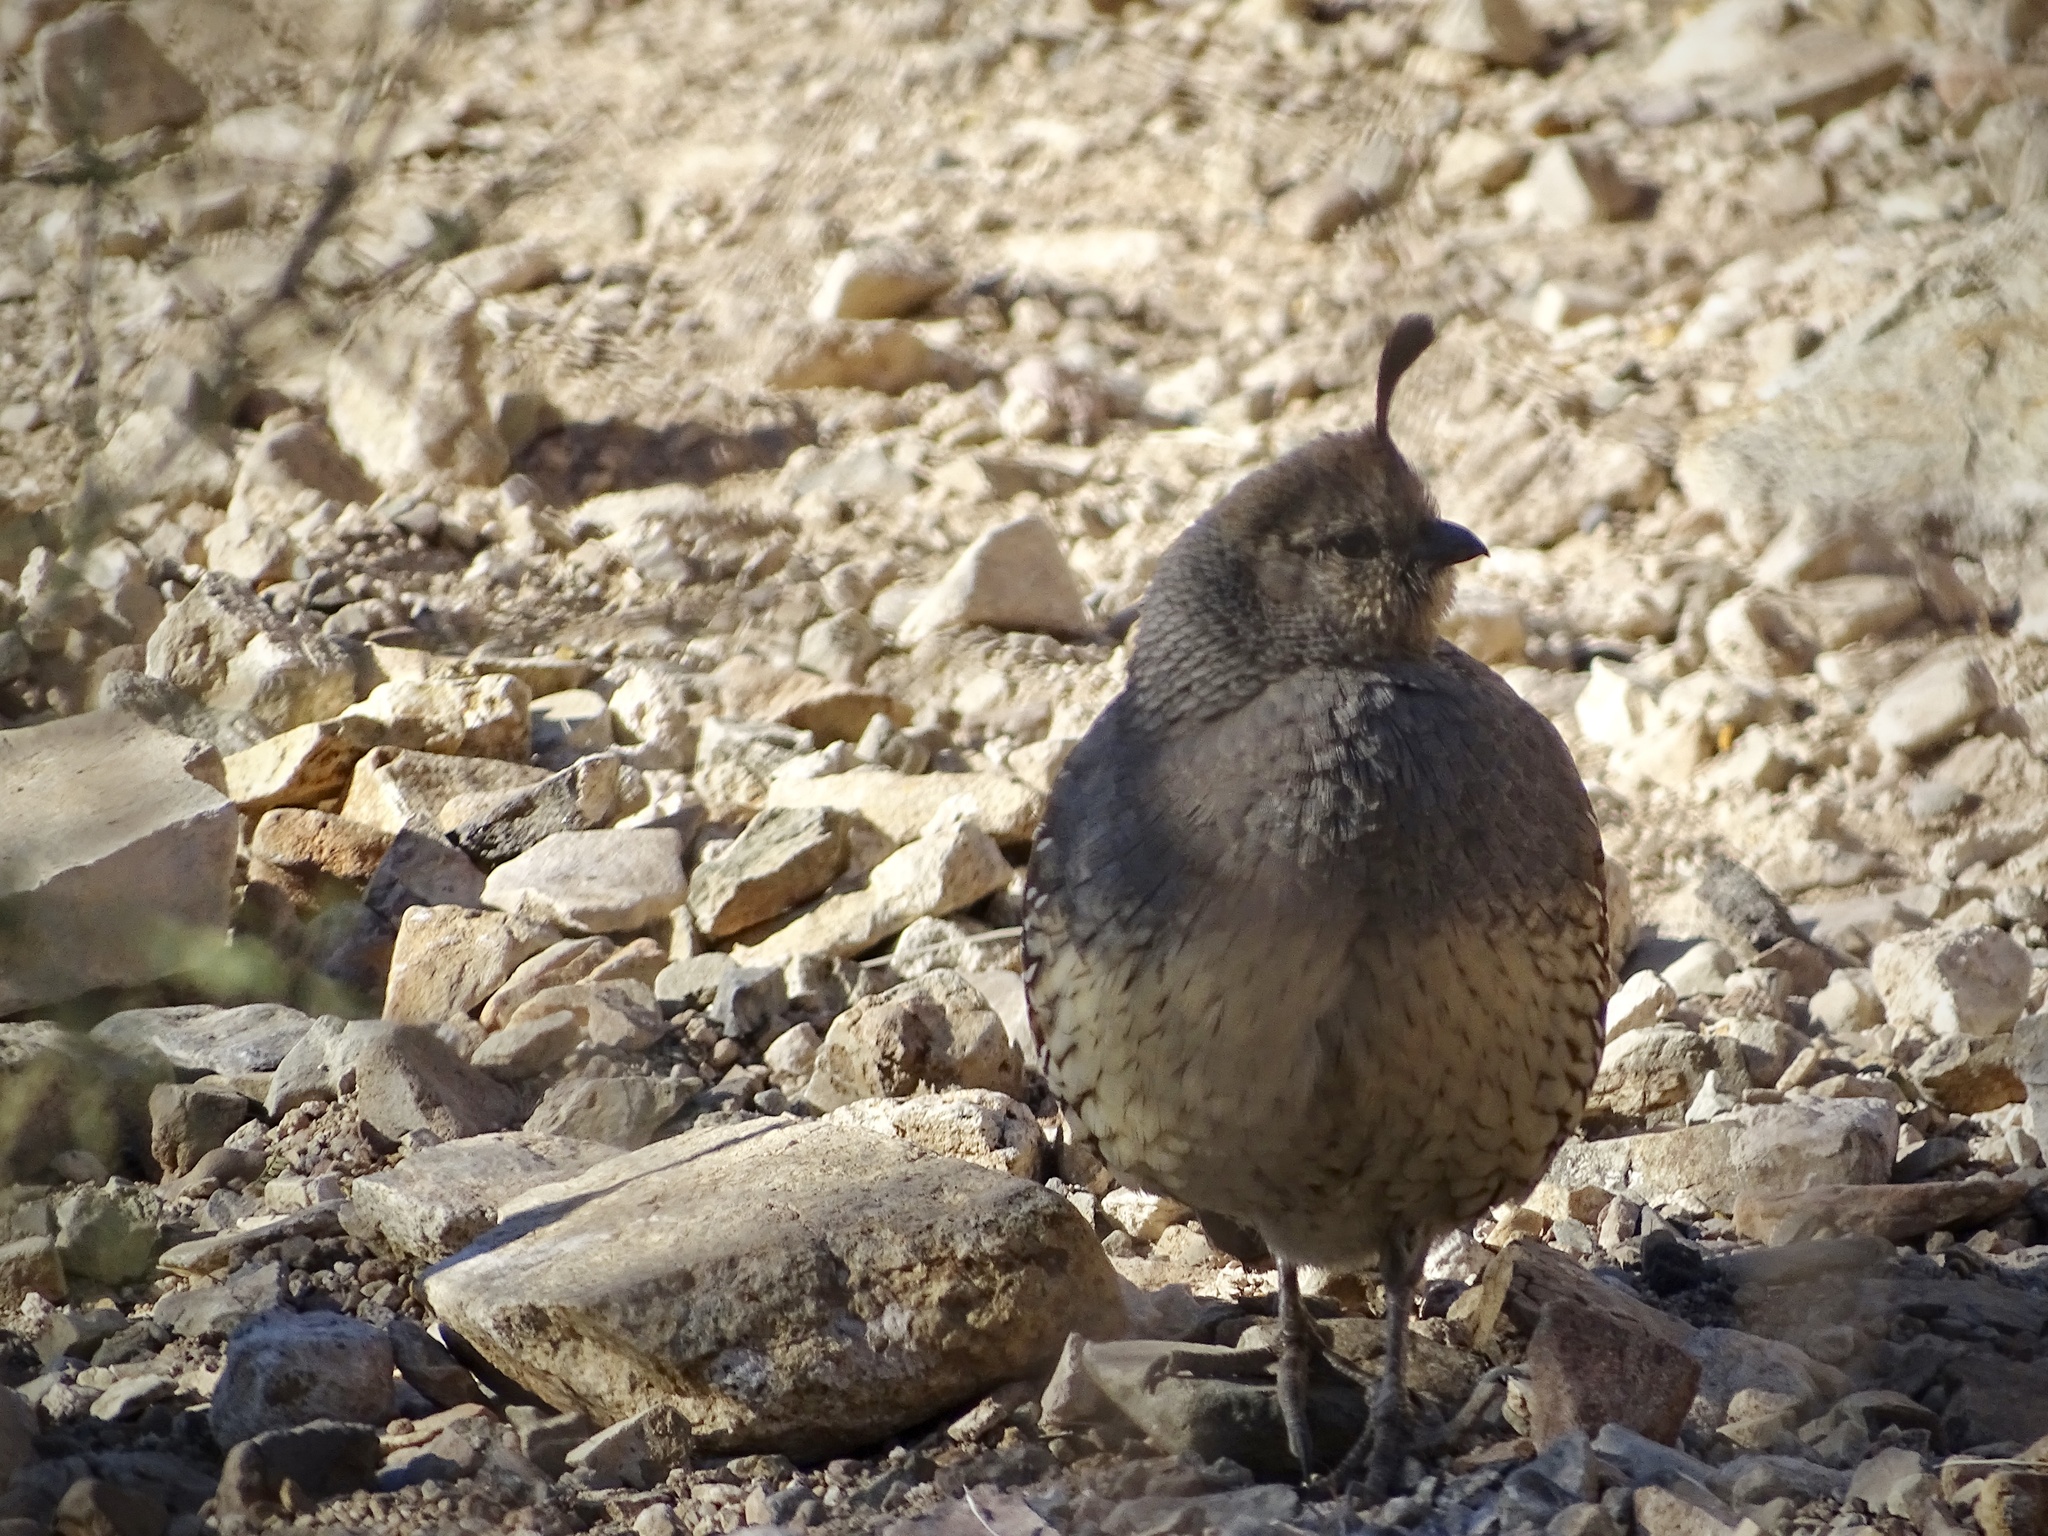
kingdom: Animalia
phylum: Chordata
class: Aves
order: Galliformes
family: Odontophoridae
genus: Callipepla
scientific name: Callipepla gambelii
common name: Gambel's quail
